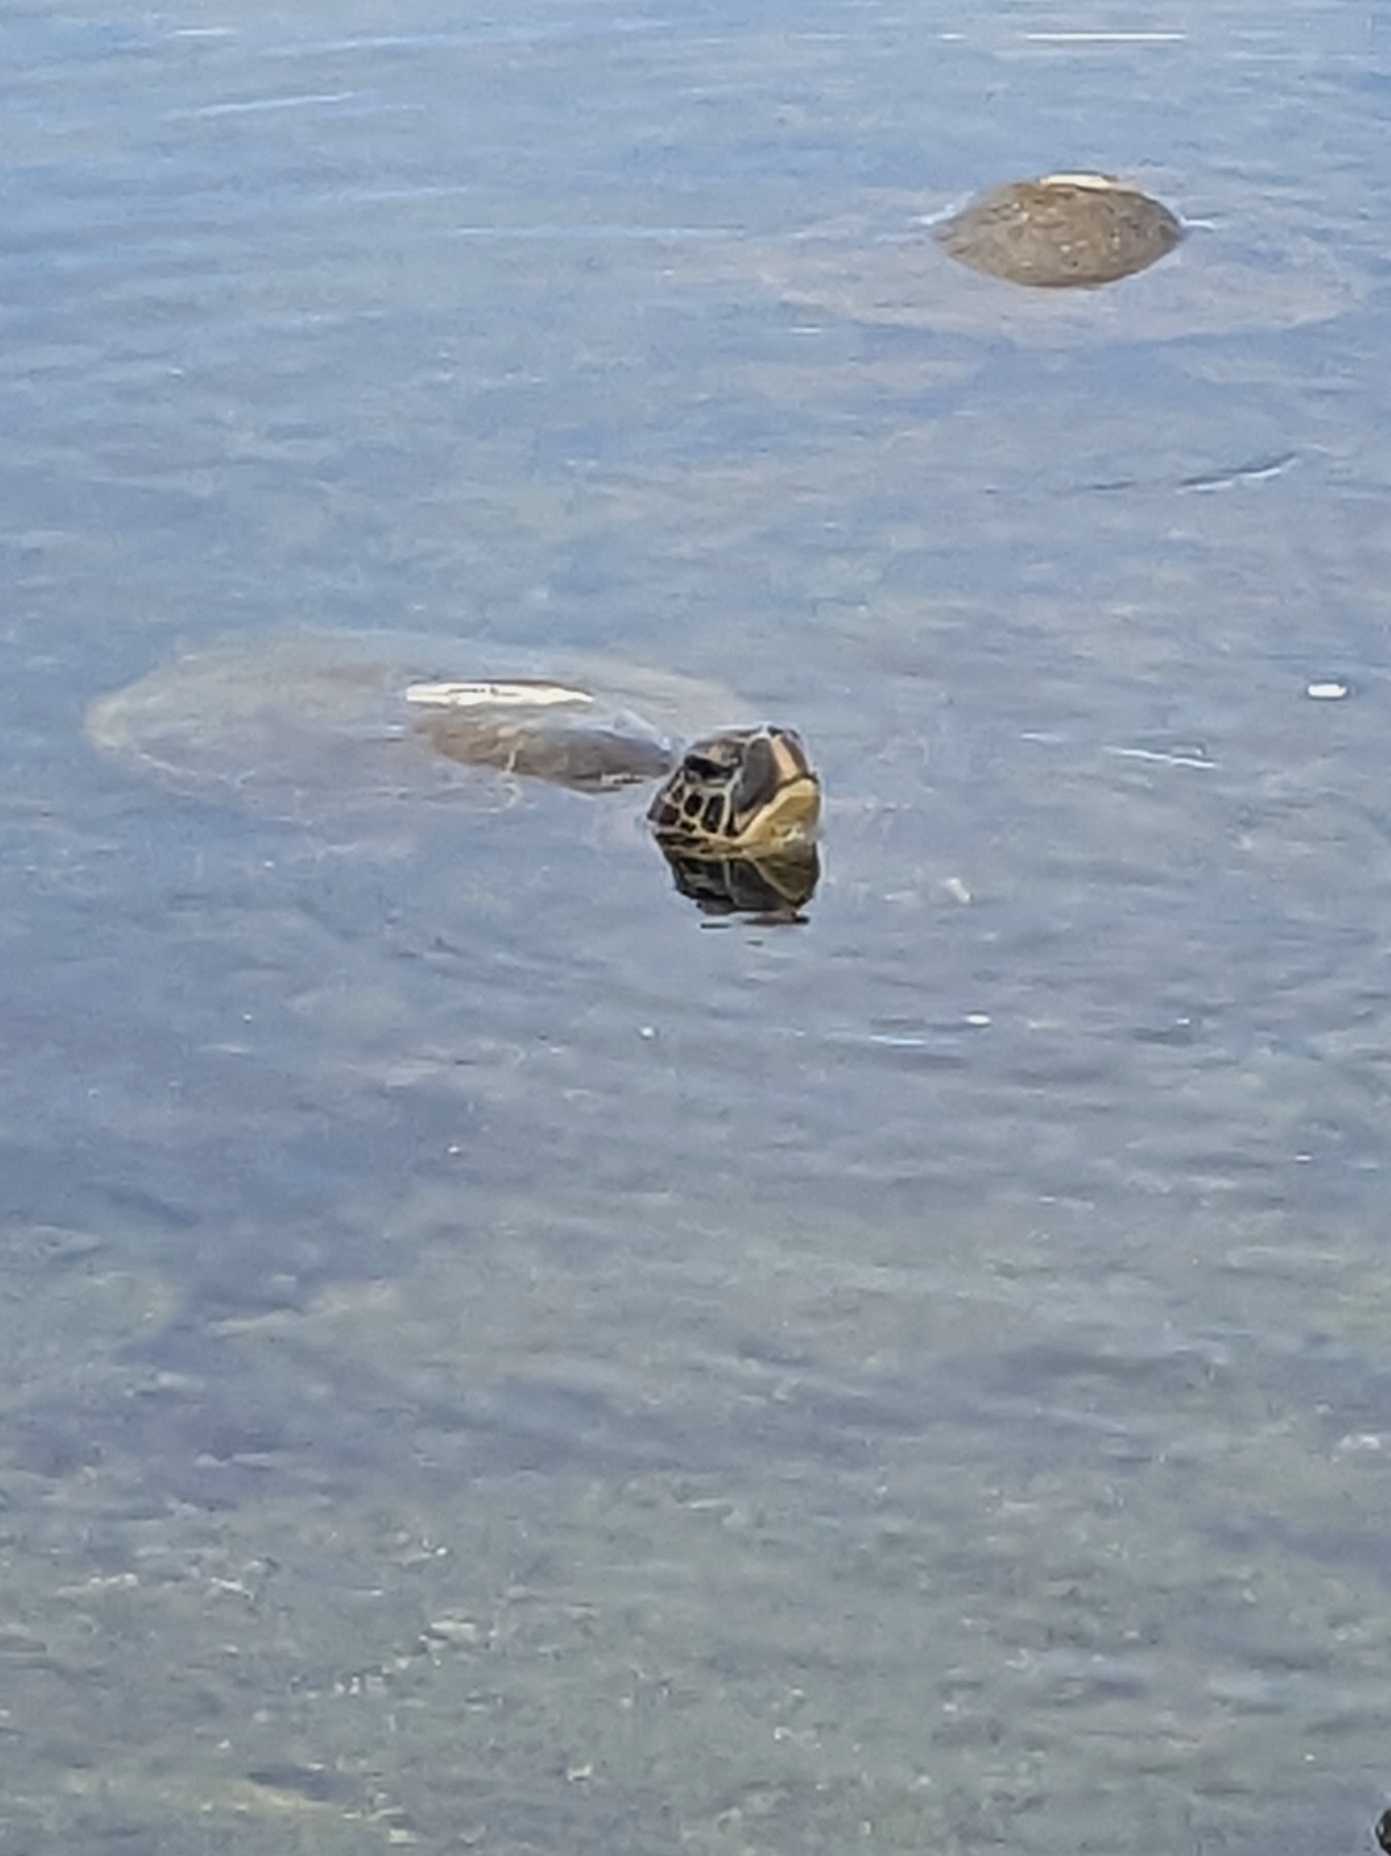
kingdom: Animalia
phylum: Chordata
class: Testudines
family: Cheloniidae
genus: Chelonia
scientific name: Chelonia mydas
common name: Green turtle
